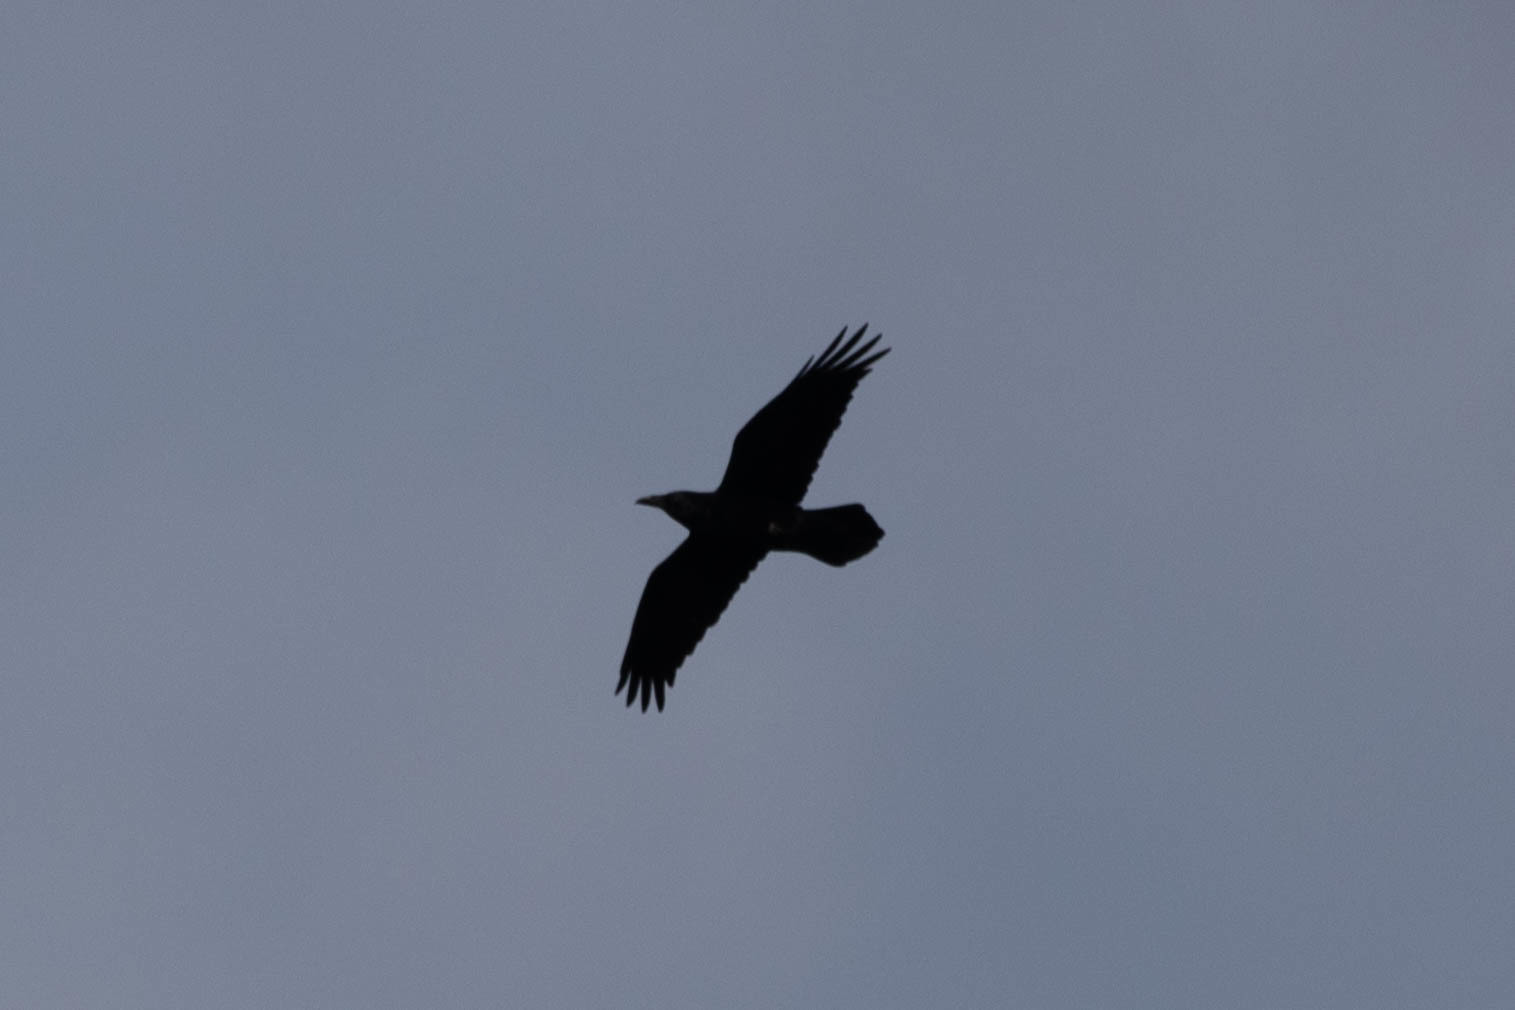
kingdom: Animalia
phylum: Chordata
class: Aves
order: Passeriformes
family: Corvidae
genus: Corvus
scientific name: Corvus corax
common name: Common raven
